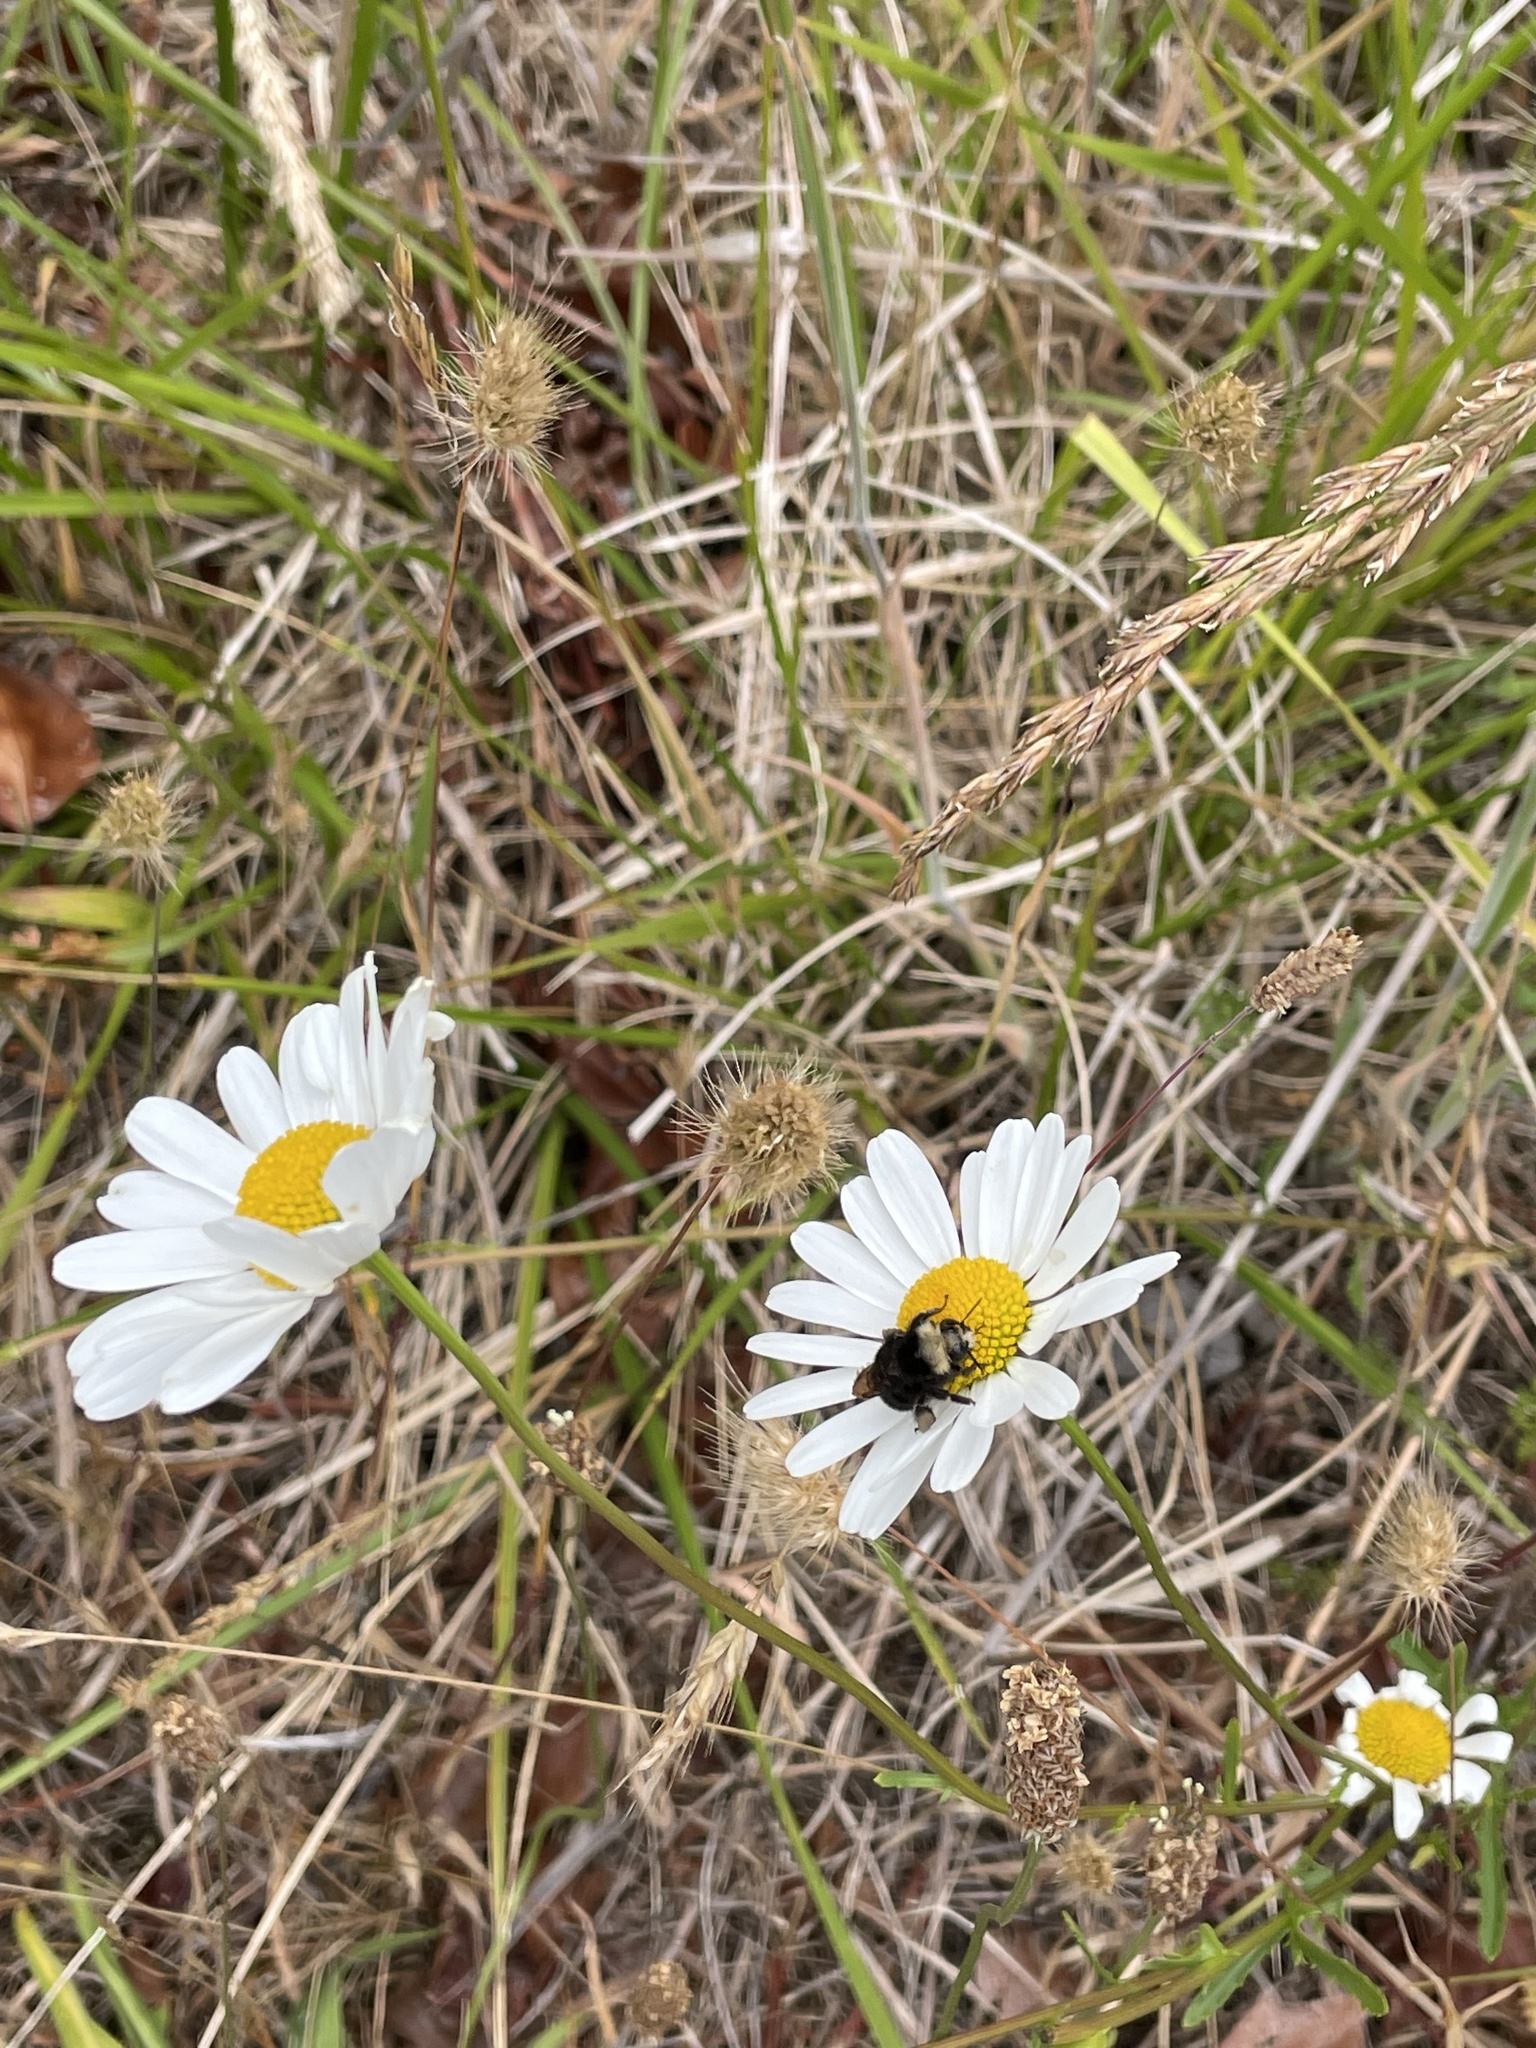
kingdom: Plantae
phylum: Tracheophyta
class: Magnoliopsida
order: Asterales
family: Asteraceae
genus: Leucanthemum
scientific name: Leucanthemum vulgare
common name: Oxeye daisy
